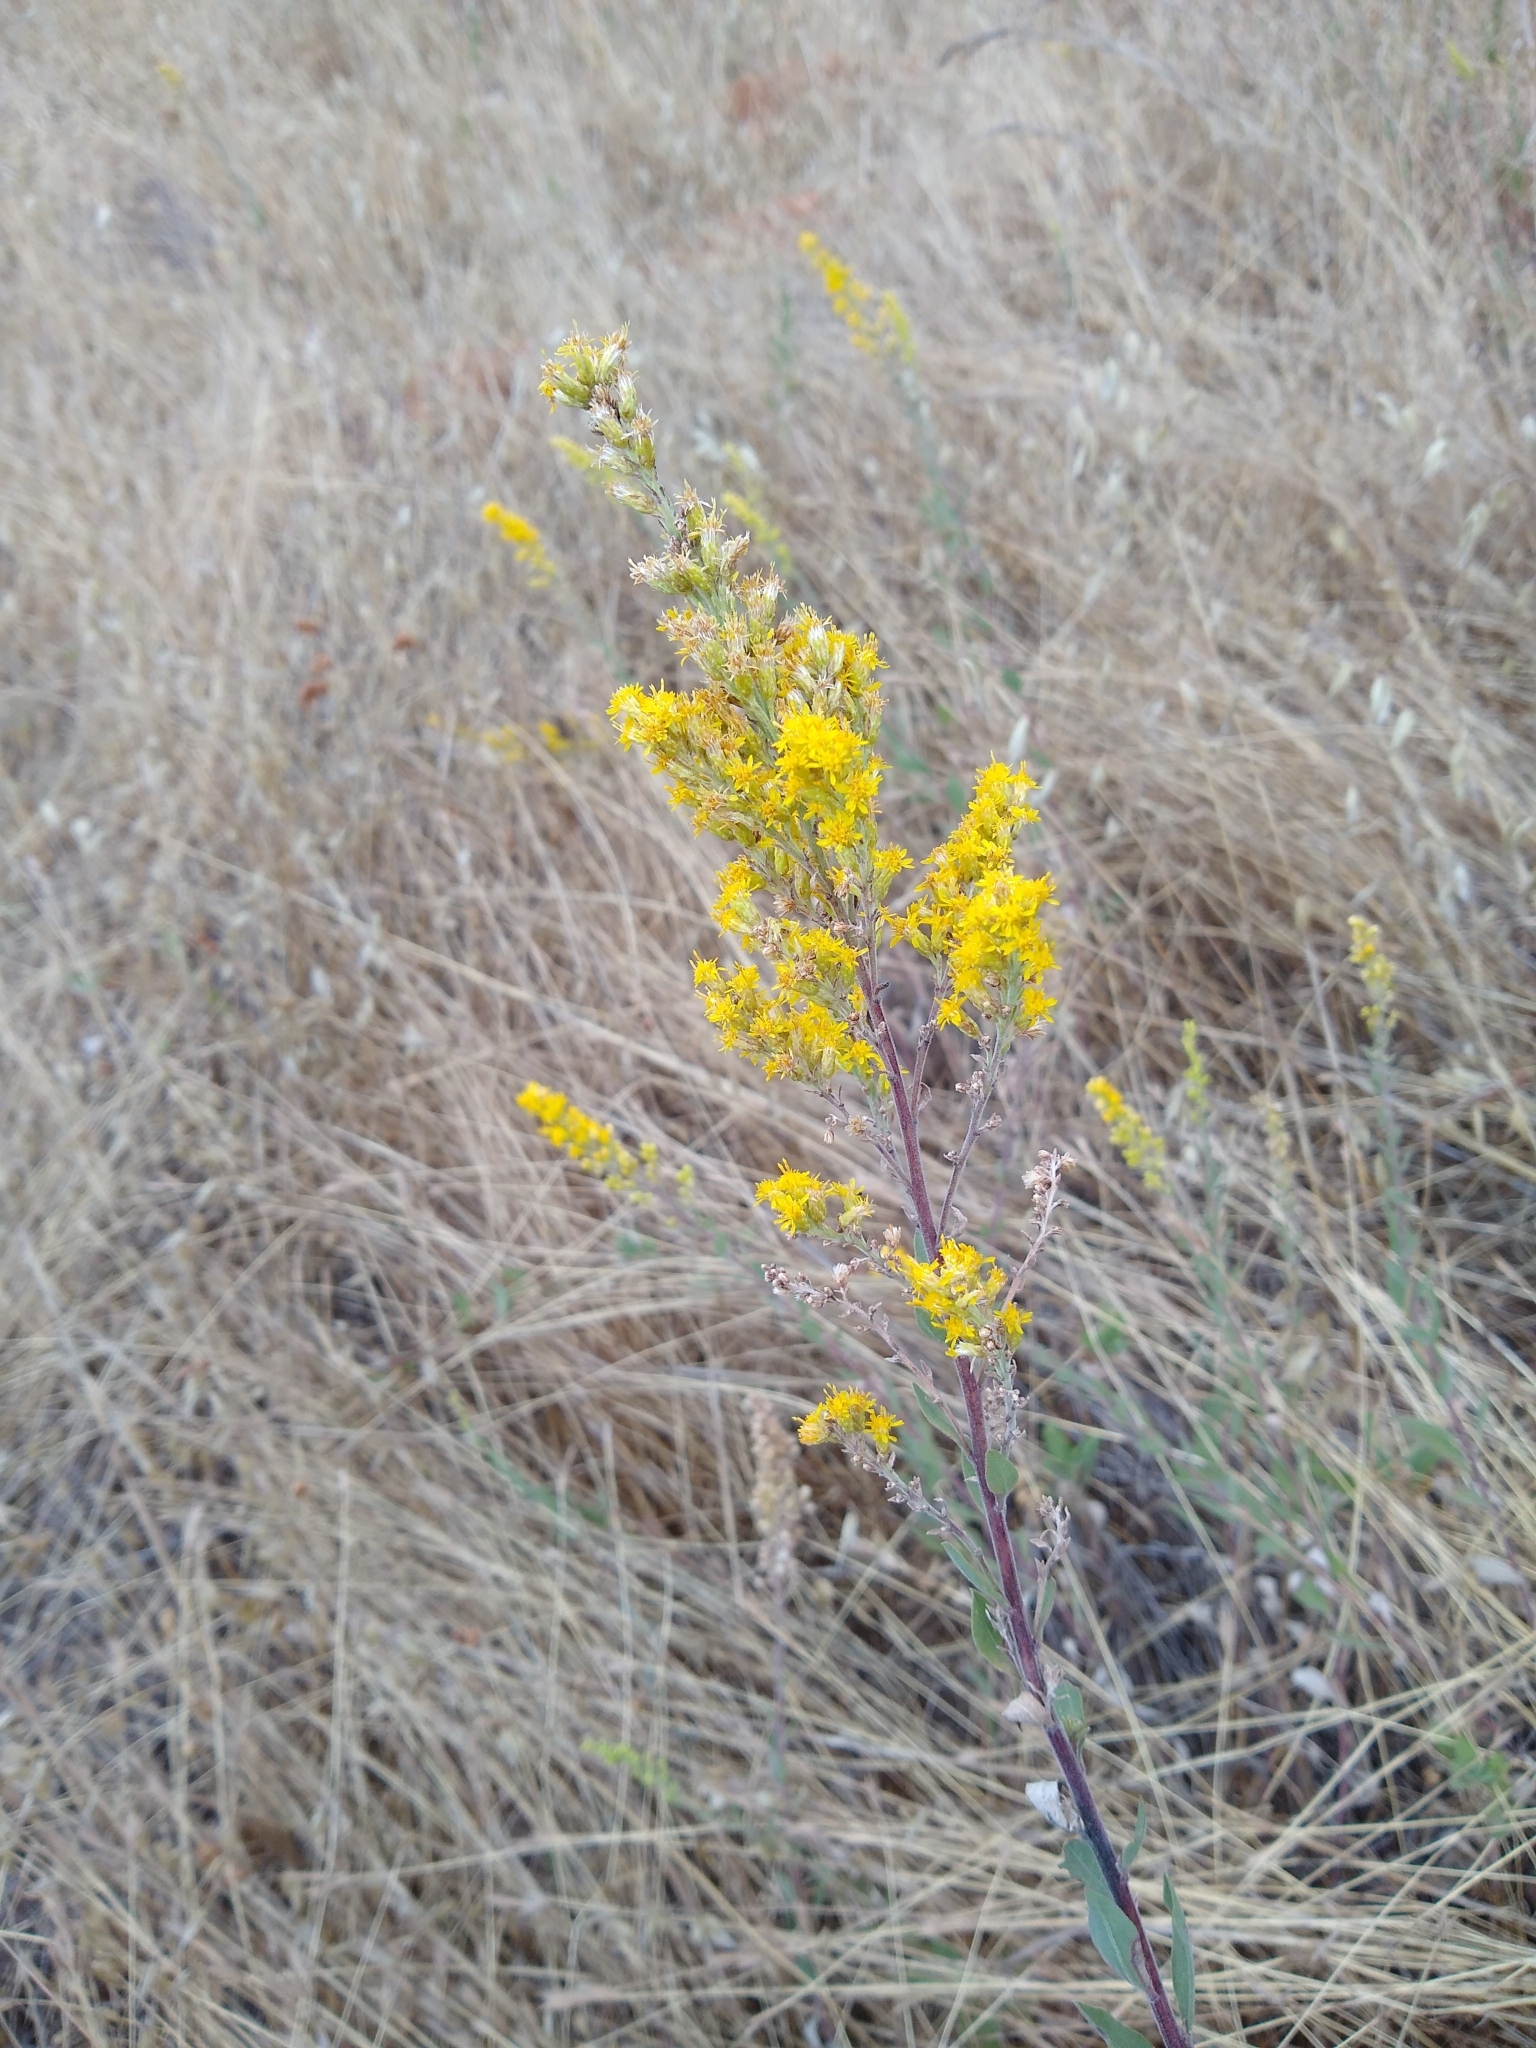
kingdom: Plantae
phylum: Tracheophyta
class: Magnoliopsida
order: Asterales
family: Asteraceae
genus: Solidago
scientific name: Solidago velutina
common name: Three-nerve goldenrod
